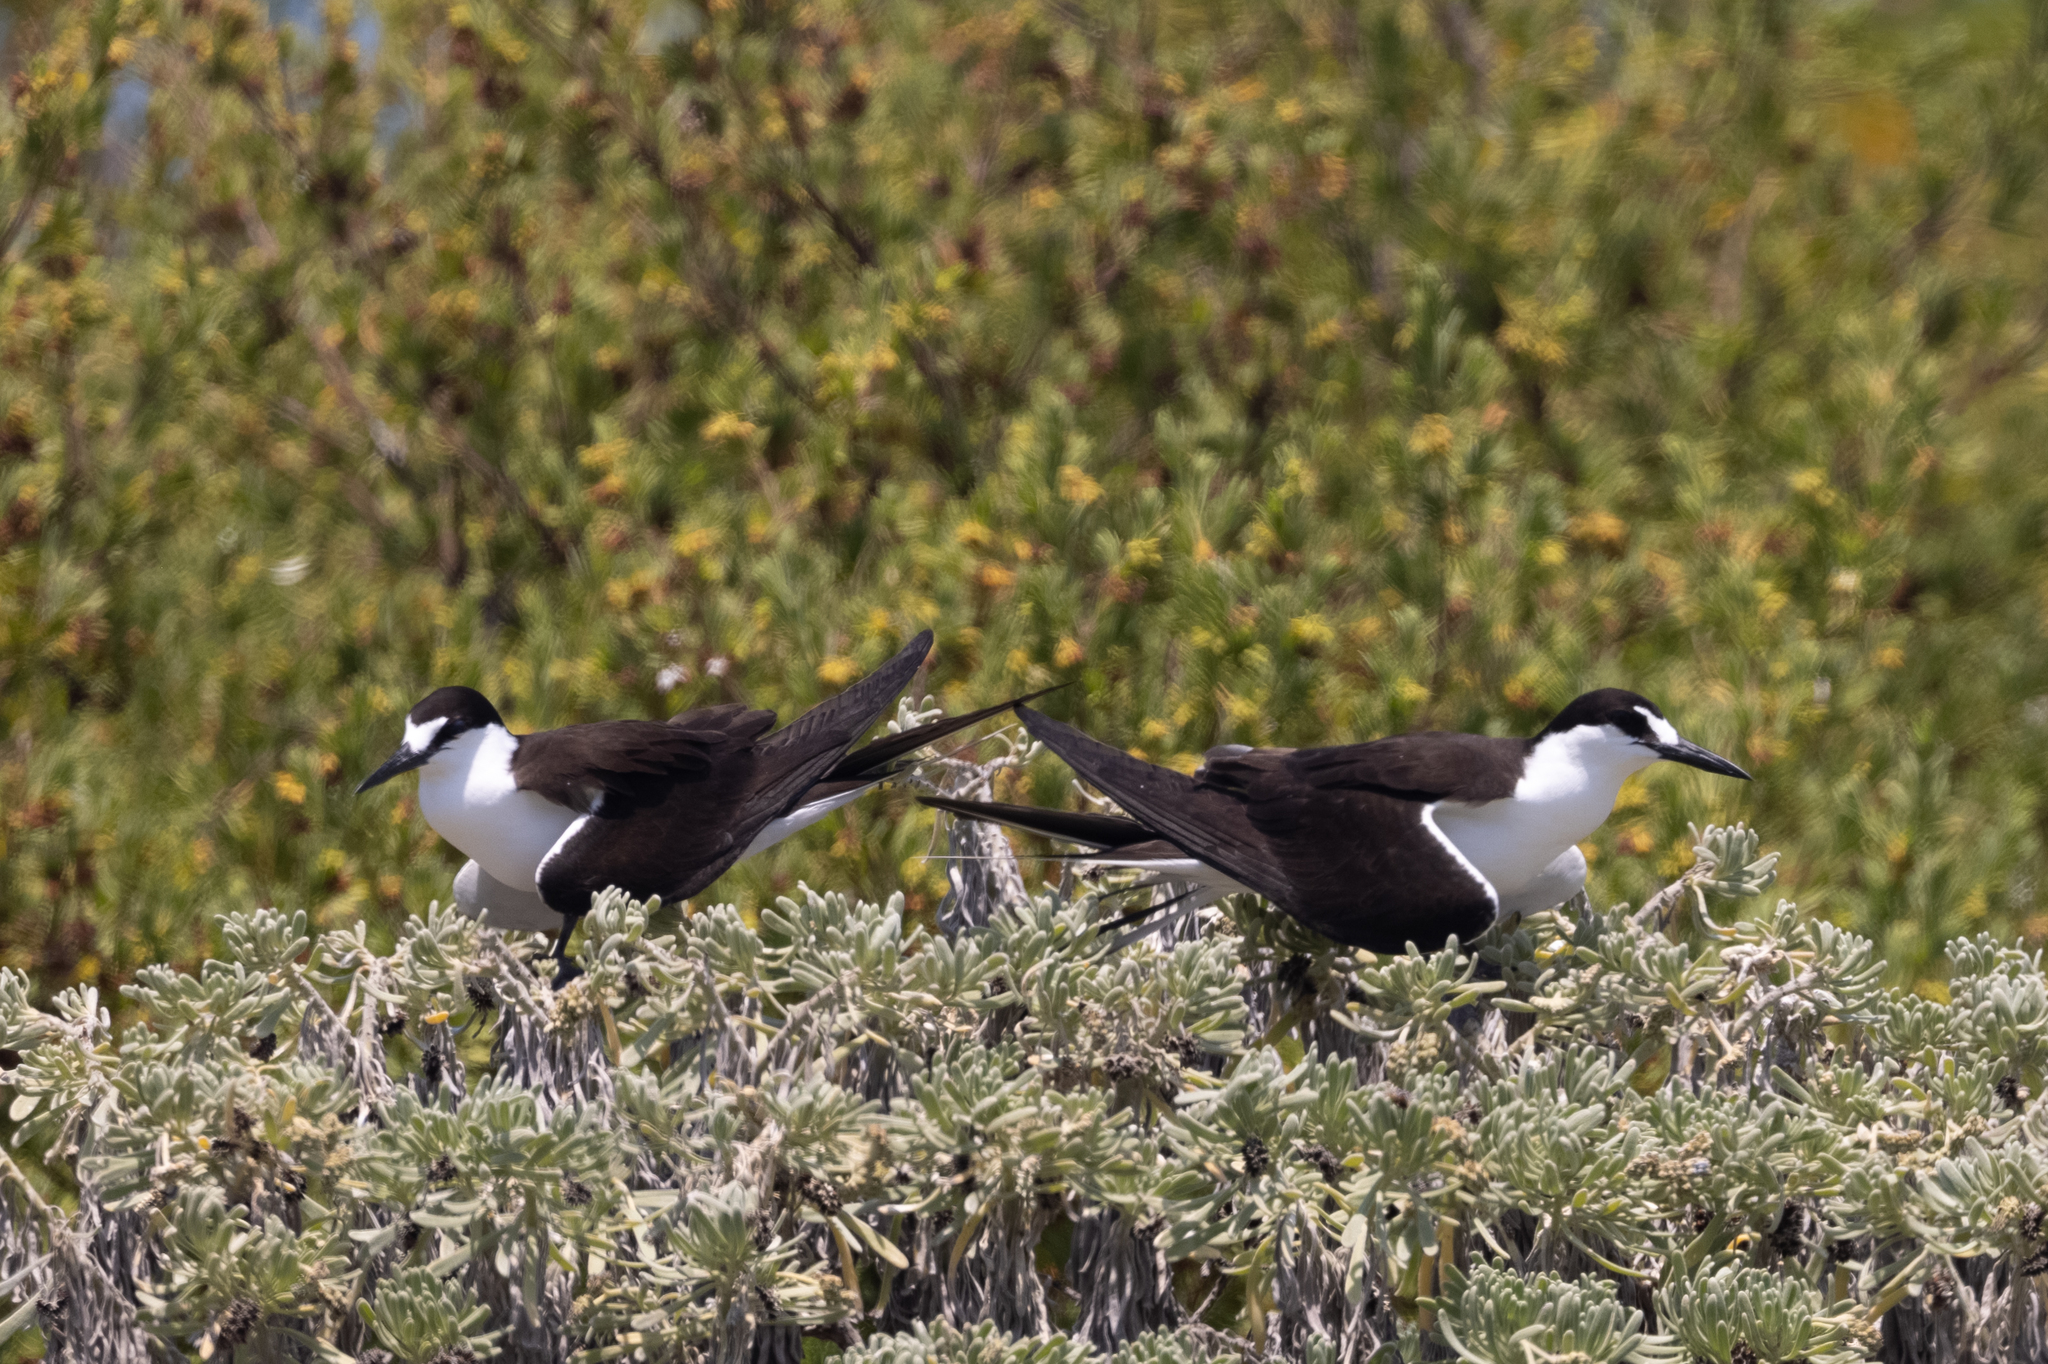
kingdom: Animalia
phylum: Chordata
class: Aves
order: Charadriiformes
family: Laridae
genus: Onychoprion
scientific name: Onychoprion fuscatus
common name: Sooty tern
